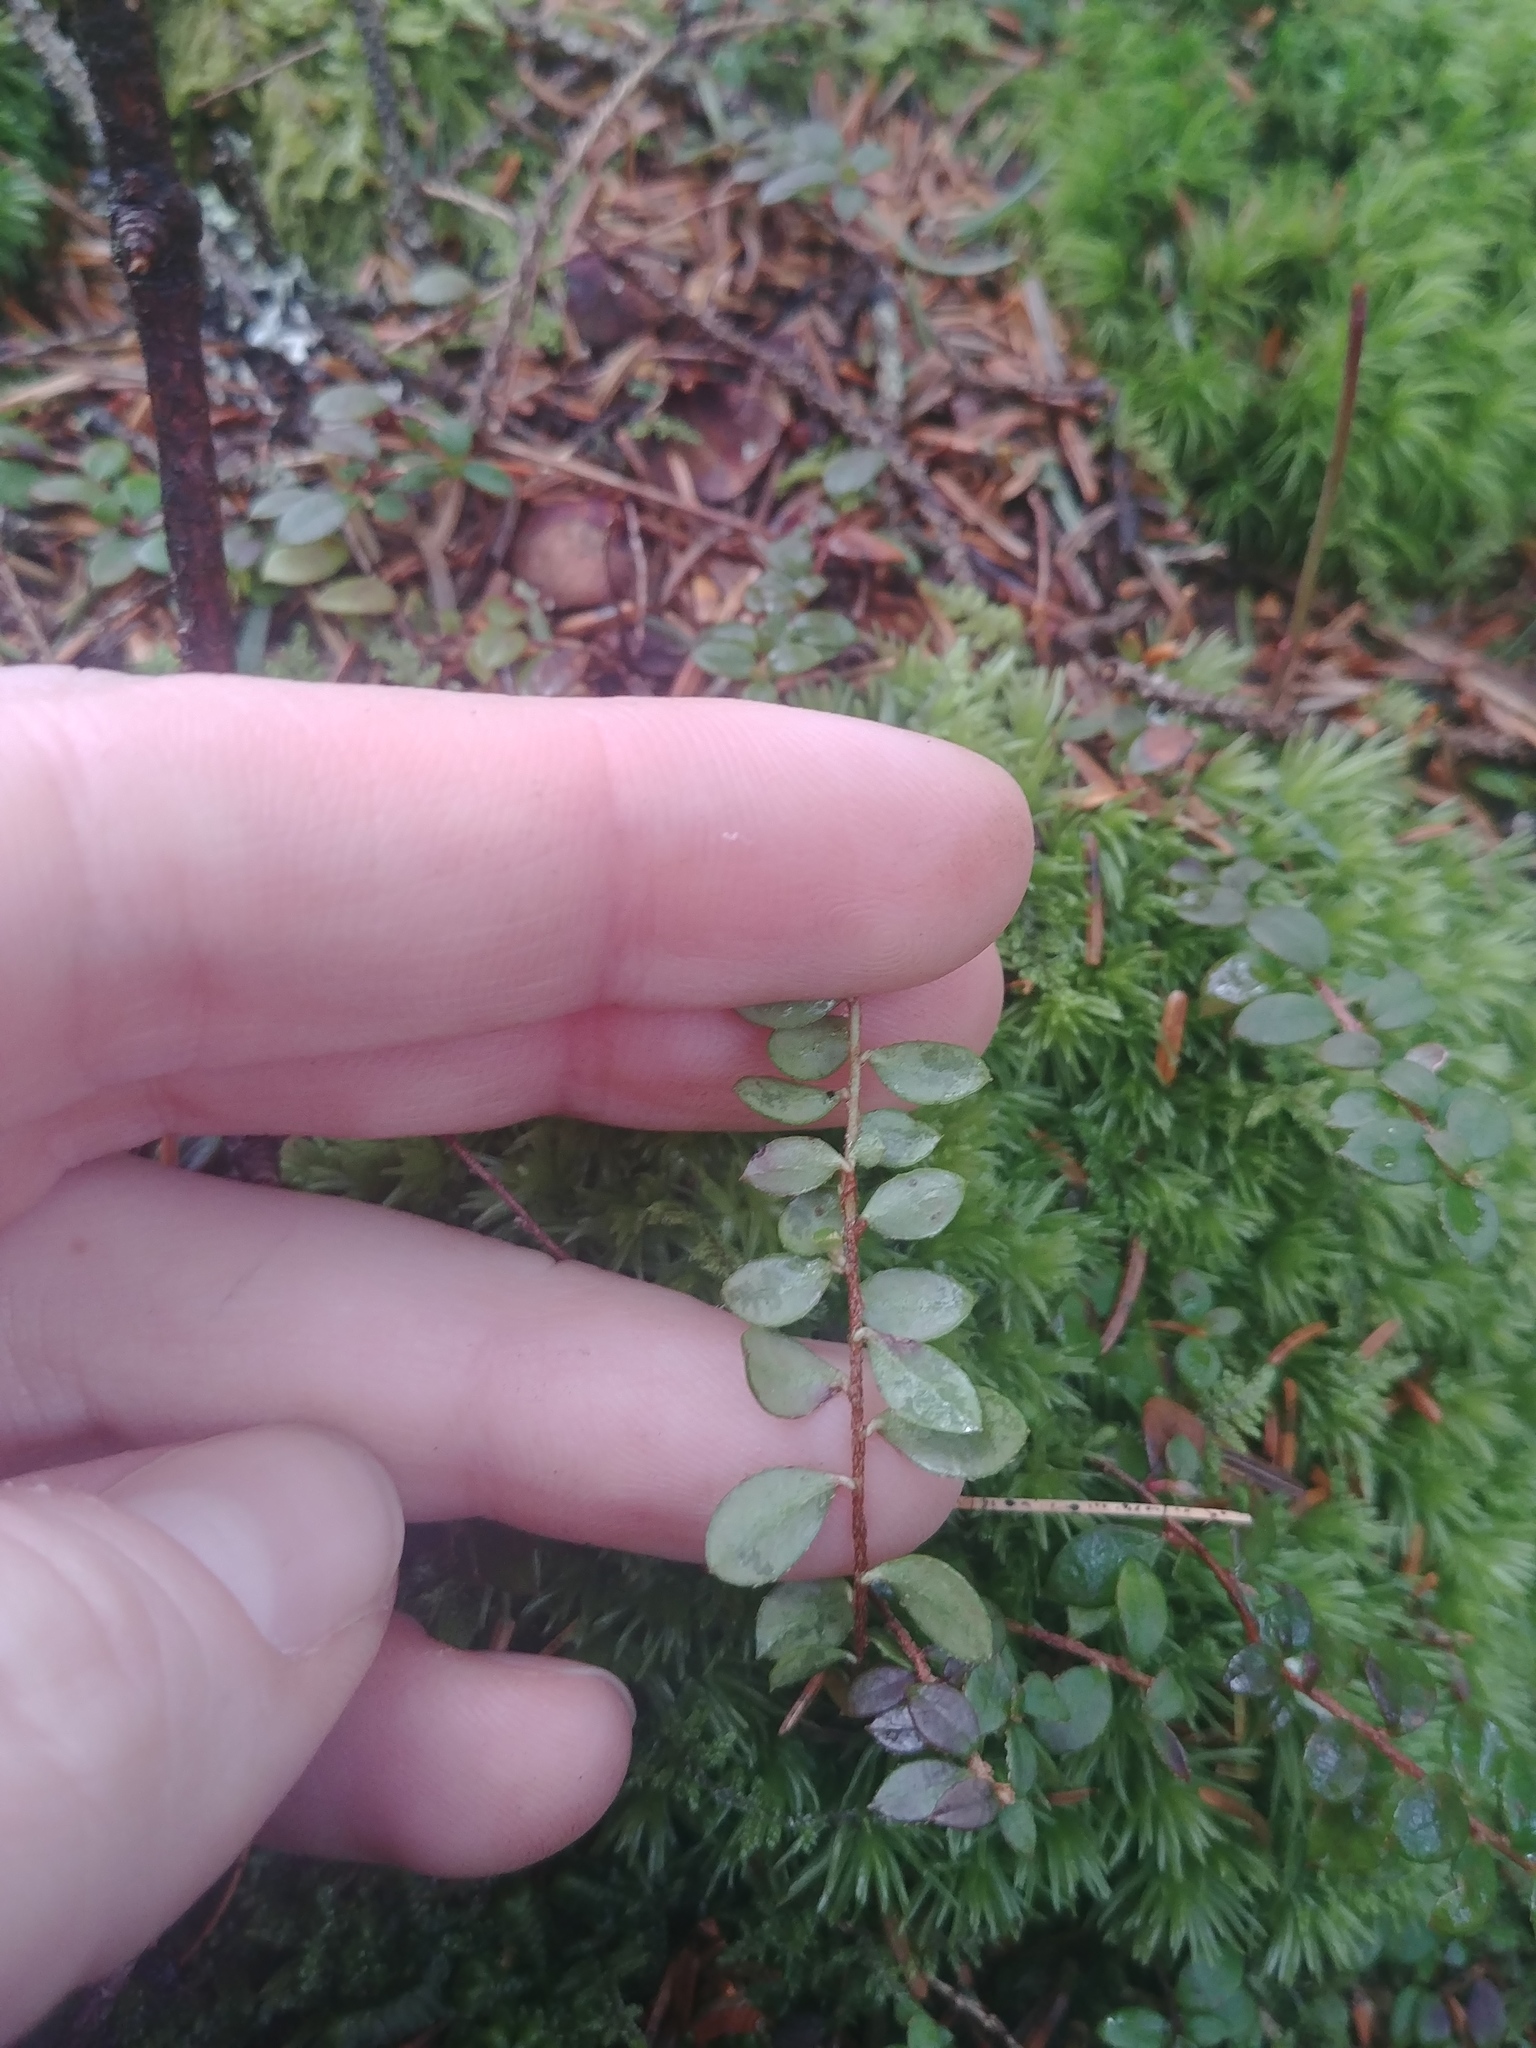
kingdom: Plantae
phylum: Tracheophyta
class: Magnoliopsida
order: Ericales
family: Ericaceae
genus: Gaultheria
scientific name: Gaultheria hispidula
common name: Cancer wintergreen
